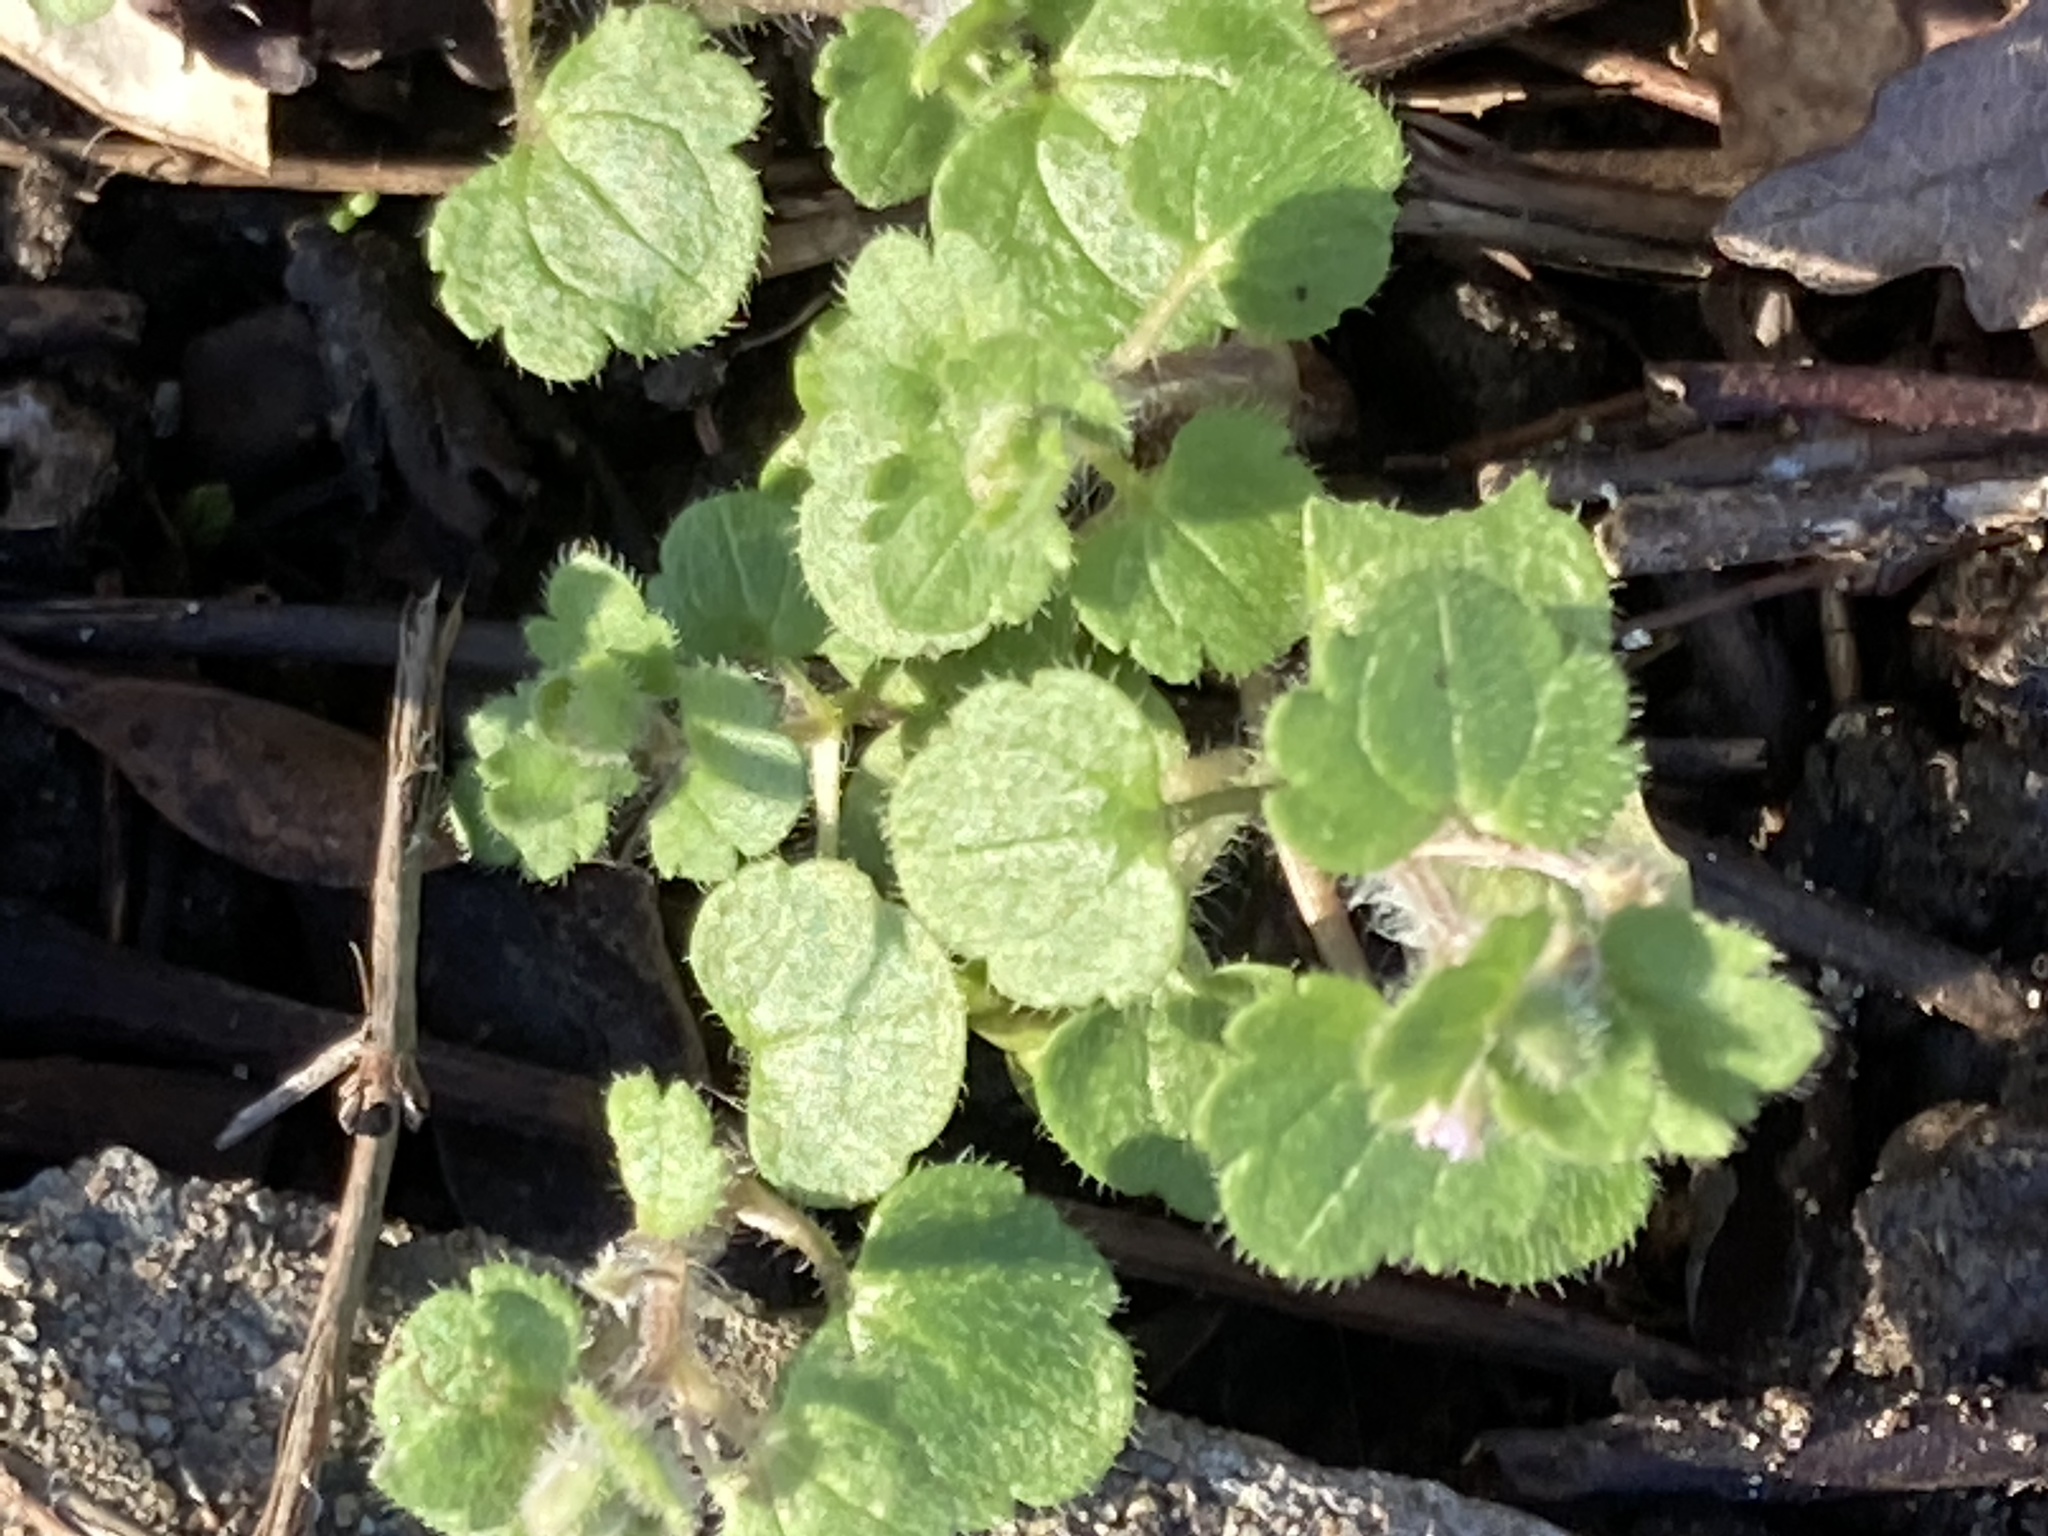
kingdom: Plantae
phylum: Tracheophyta
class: Magnoliopsida
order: Lamiales
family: Plantaginaceae
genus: Veronica
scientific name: Veronica hederifolia
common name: Ivy-leaved speedwell
